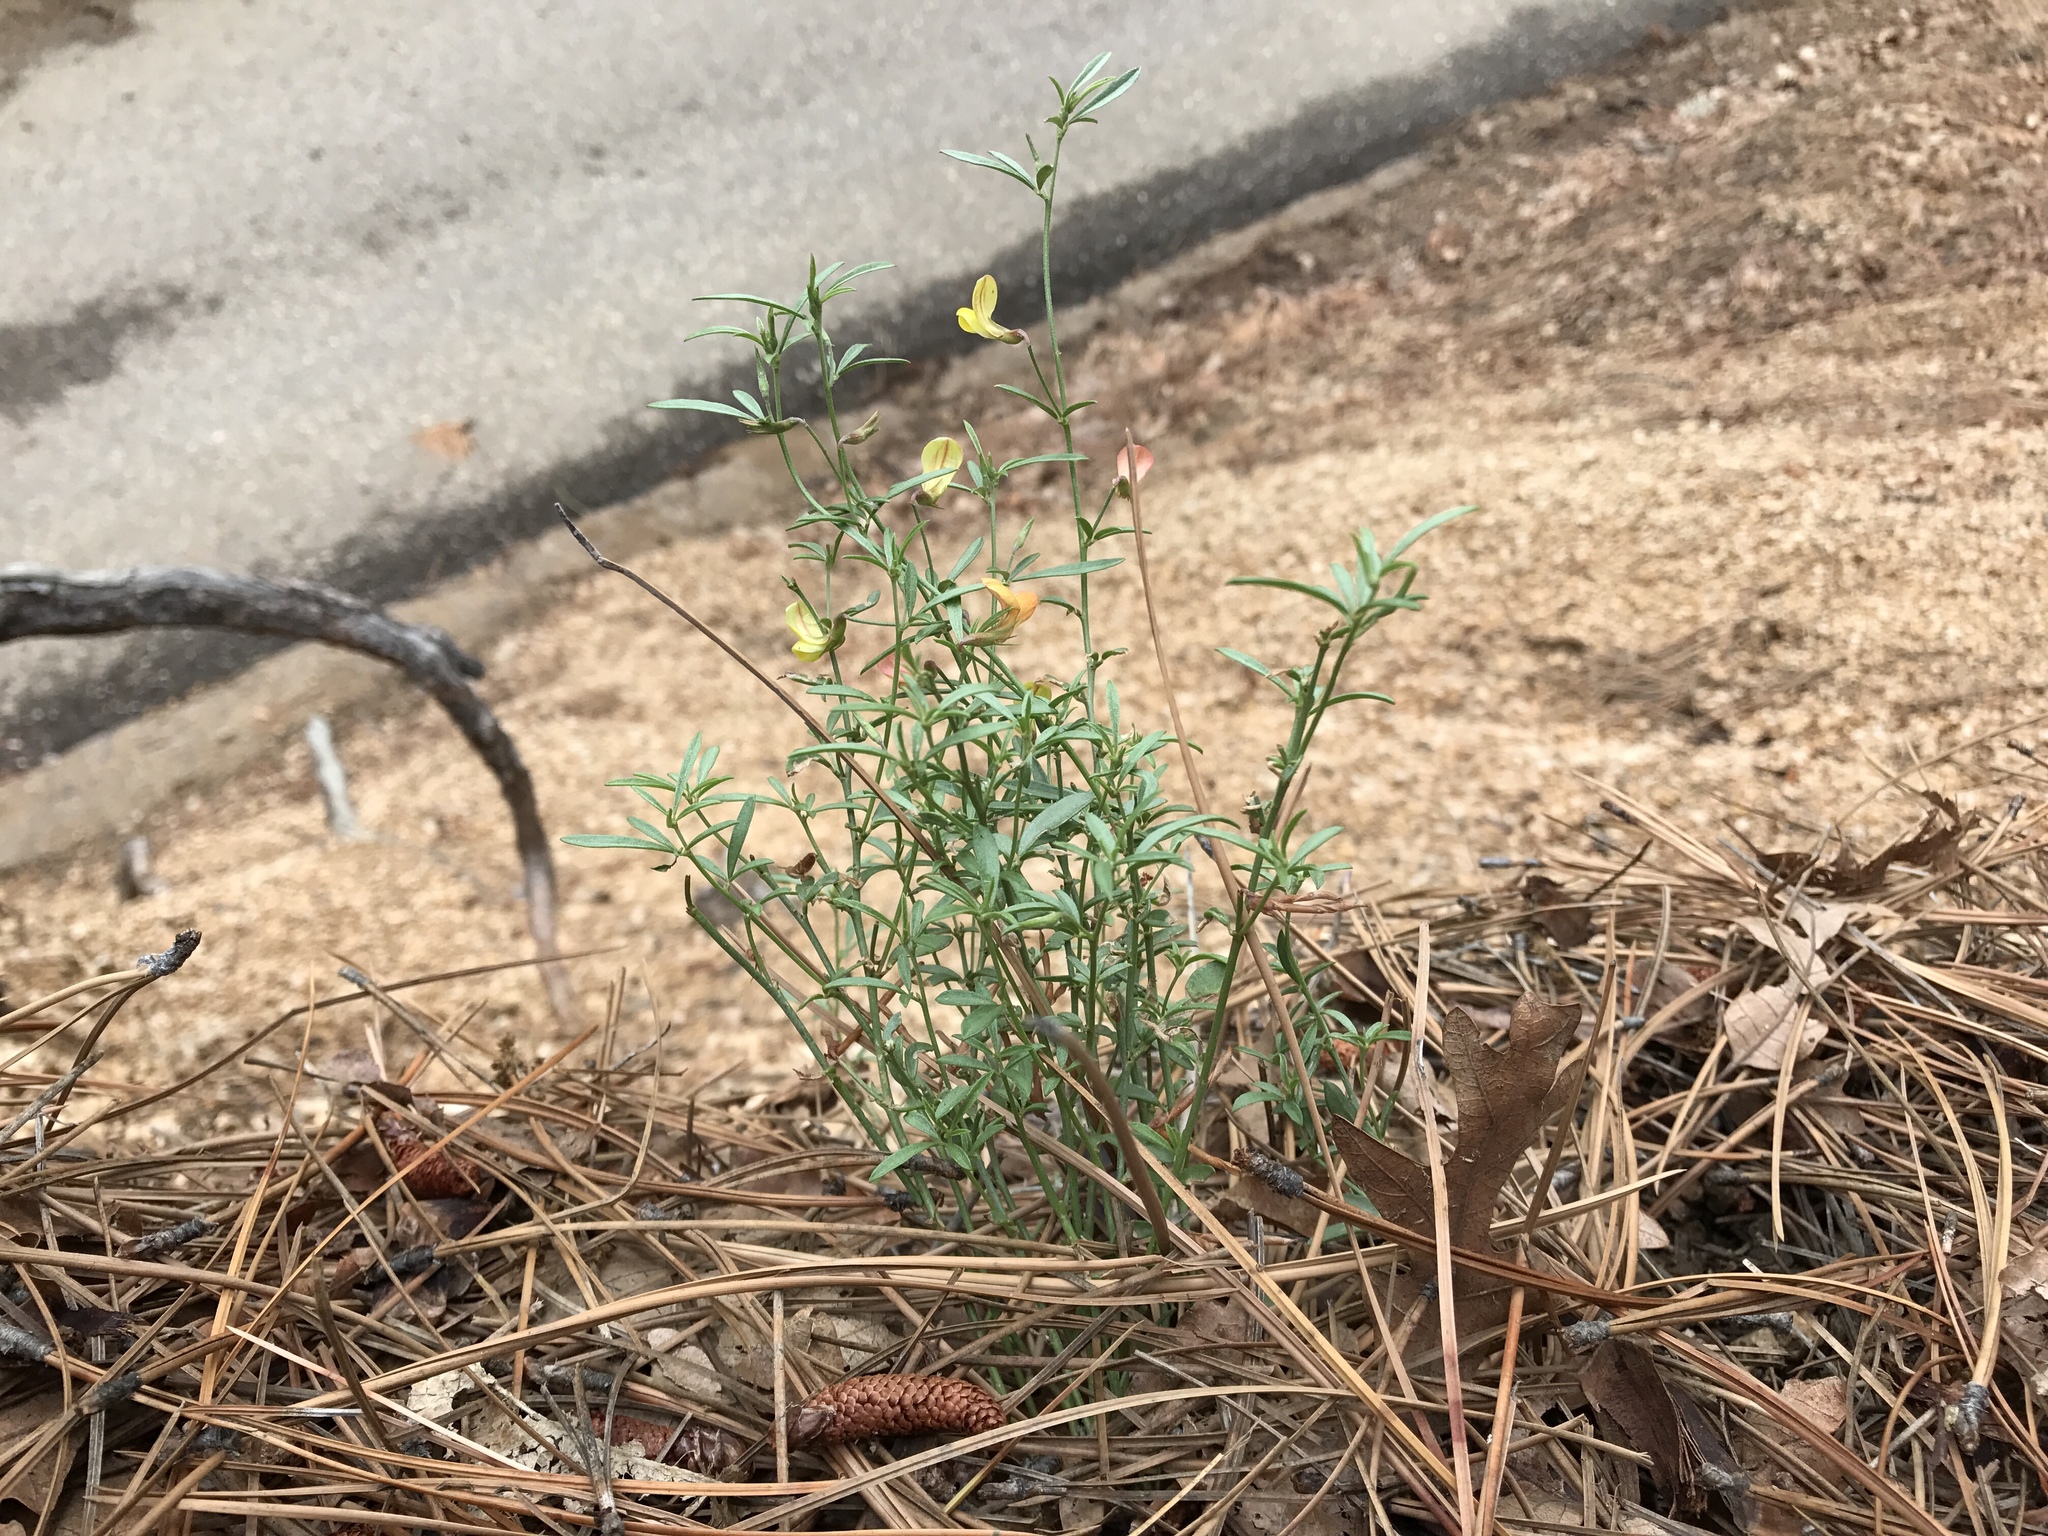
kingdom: Plantae
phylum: Tracheophyta
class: Magnoliopsida
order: Fabales
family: Fabaceae
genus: Acmispon
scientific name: Acmispon wrightii
